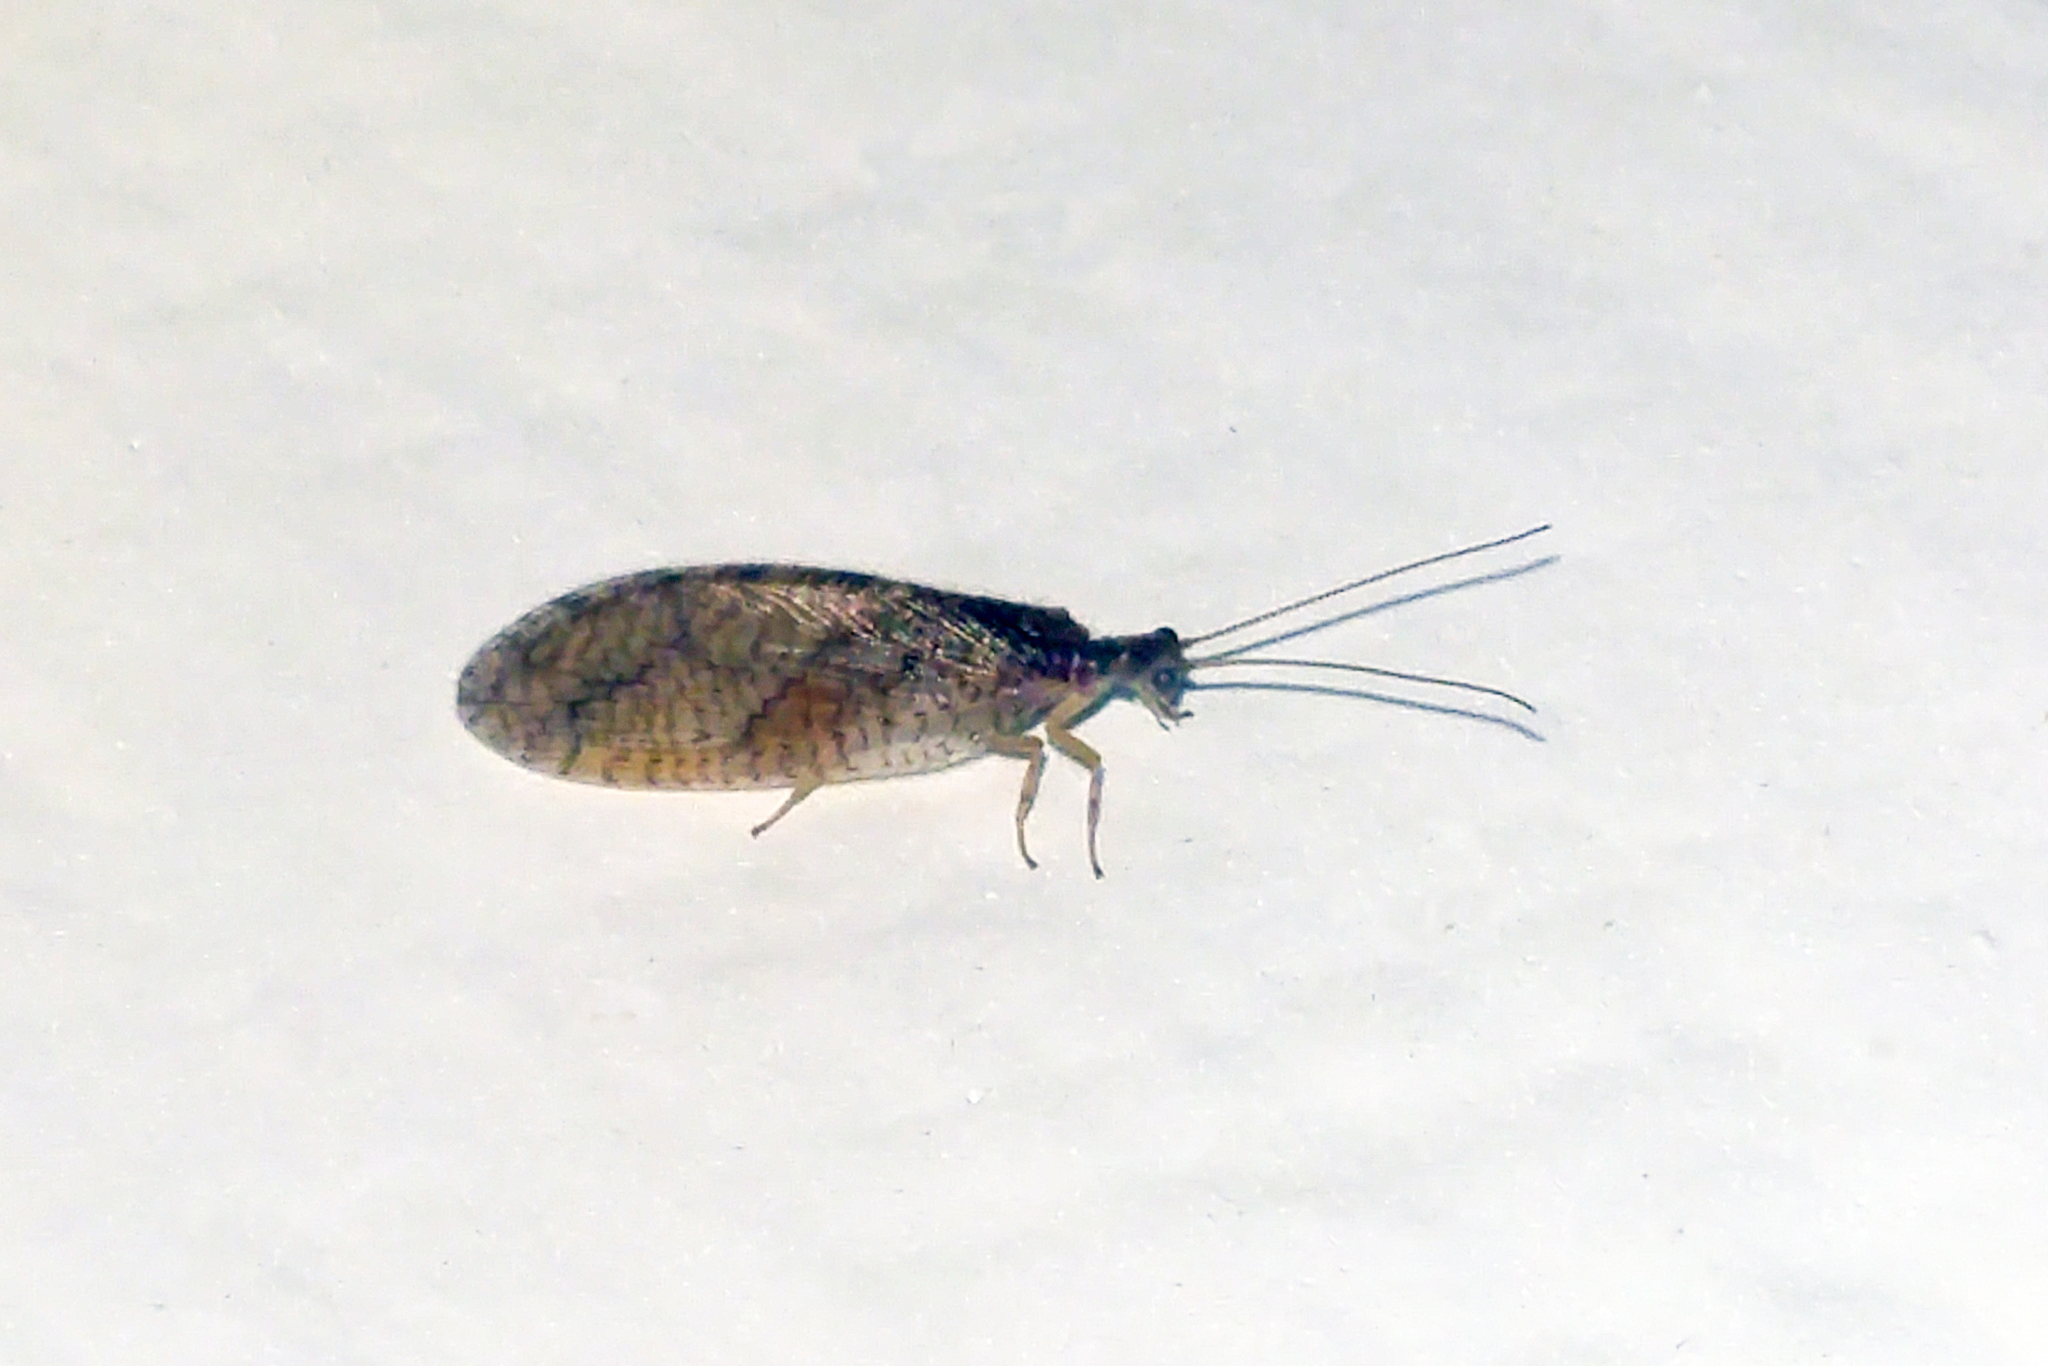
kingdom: Animalia
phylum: Arthropoda
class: Insecta
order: Neuroptera
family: Hemerobiidae
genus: Micromus
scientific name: Micromus posticus
